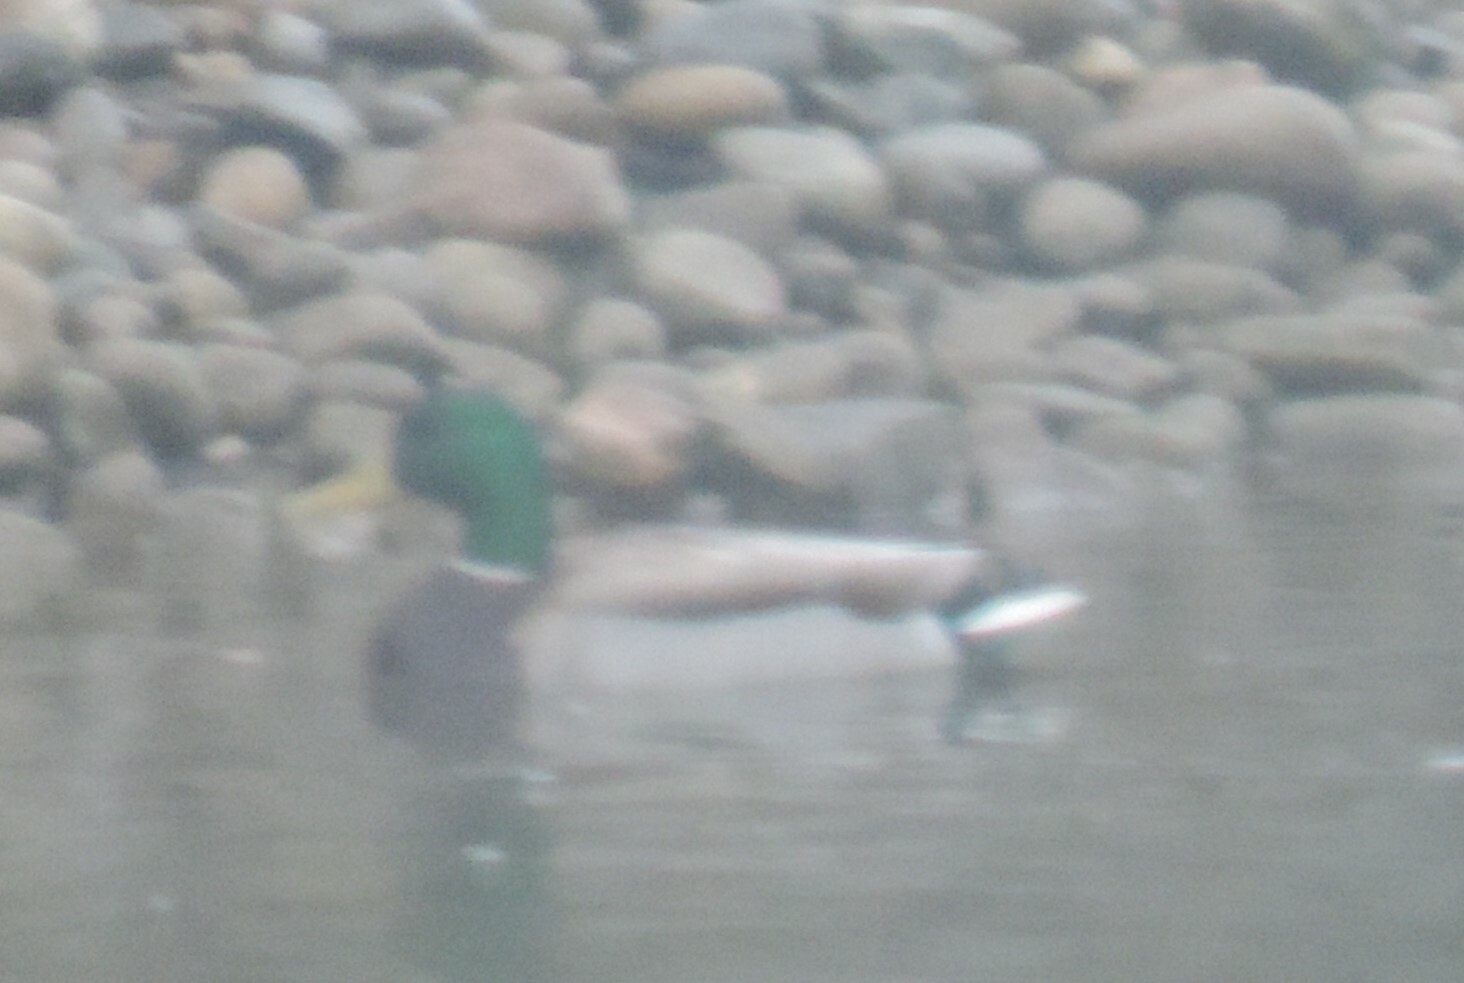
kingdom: Animalia
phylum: Chordata
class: Aves
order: Anseriformes
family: Anatidae
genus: Anas
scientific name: Anas platyrhynchos
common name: Mallard
